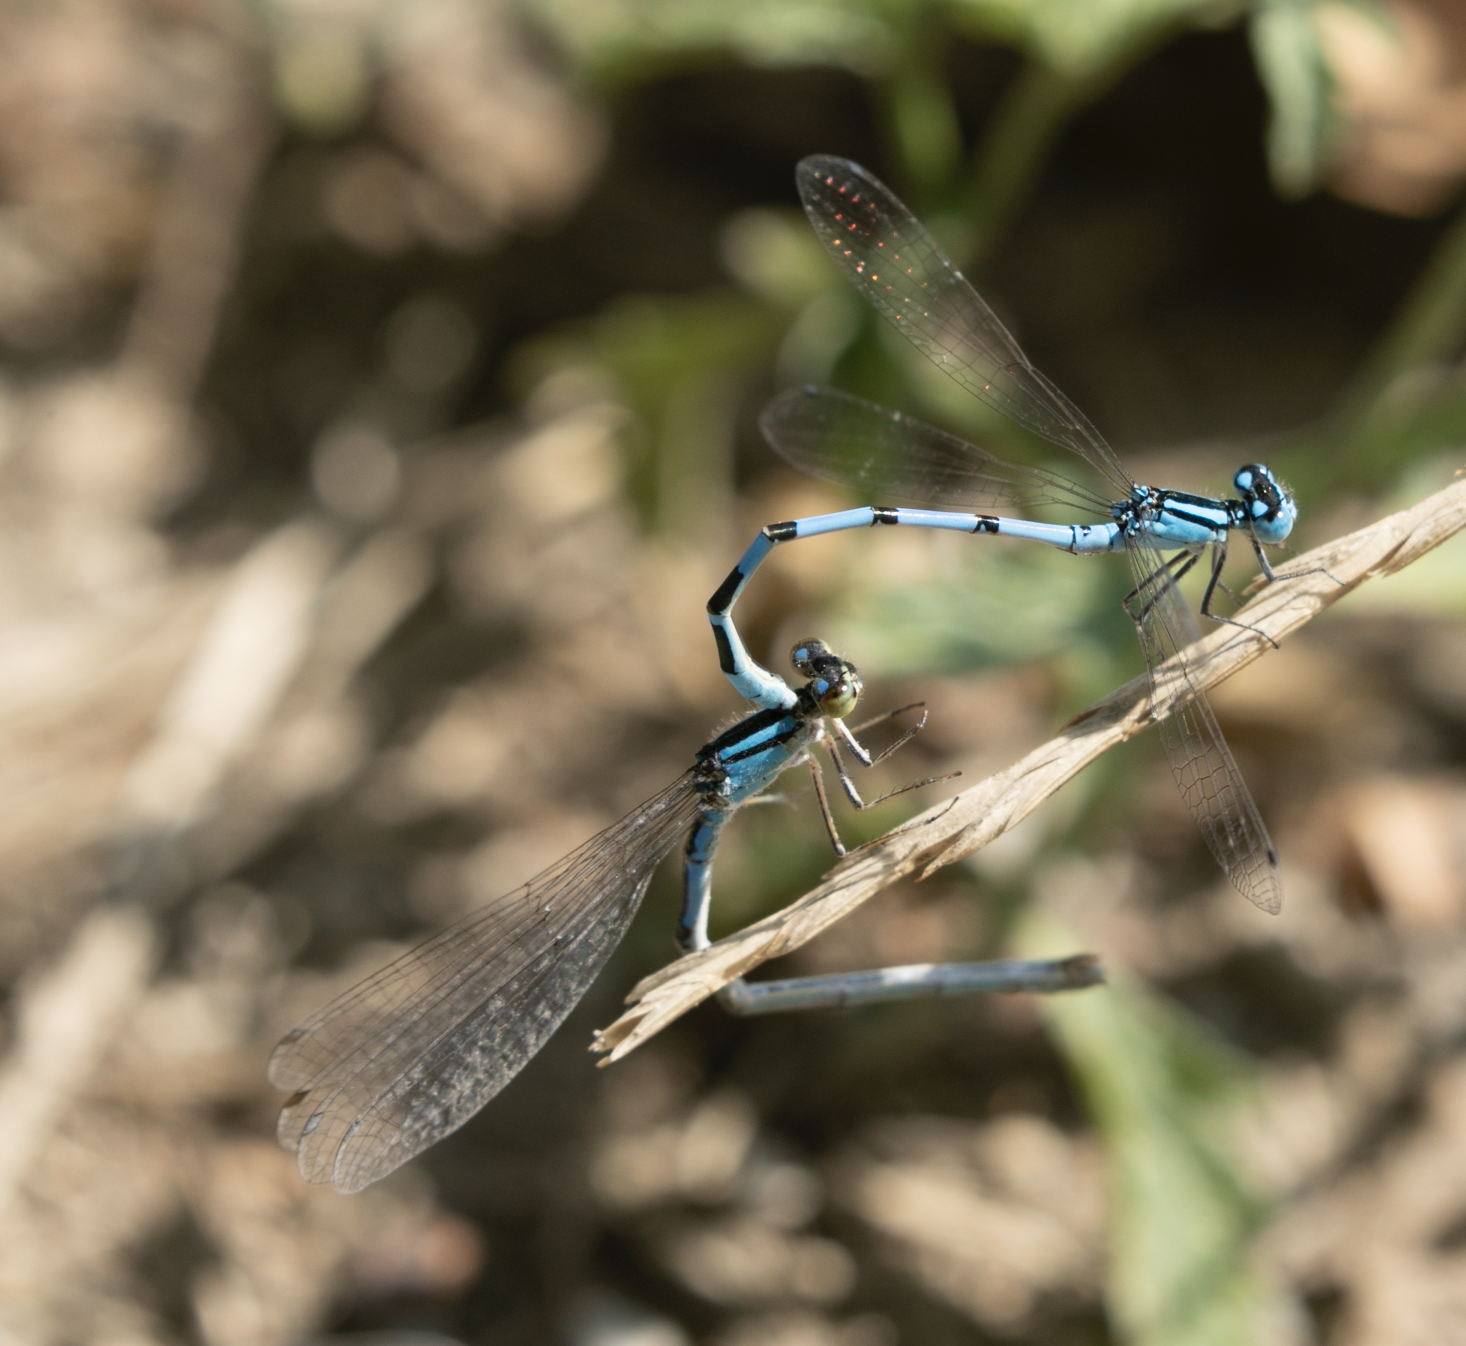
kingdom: Animalia
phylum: Arthropoda
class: Insecta
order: Odonata
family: Coenagrionidae
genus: Enallagma
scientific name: Enallagma cyathigerum
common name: Common blue damselfly
